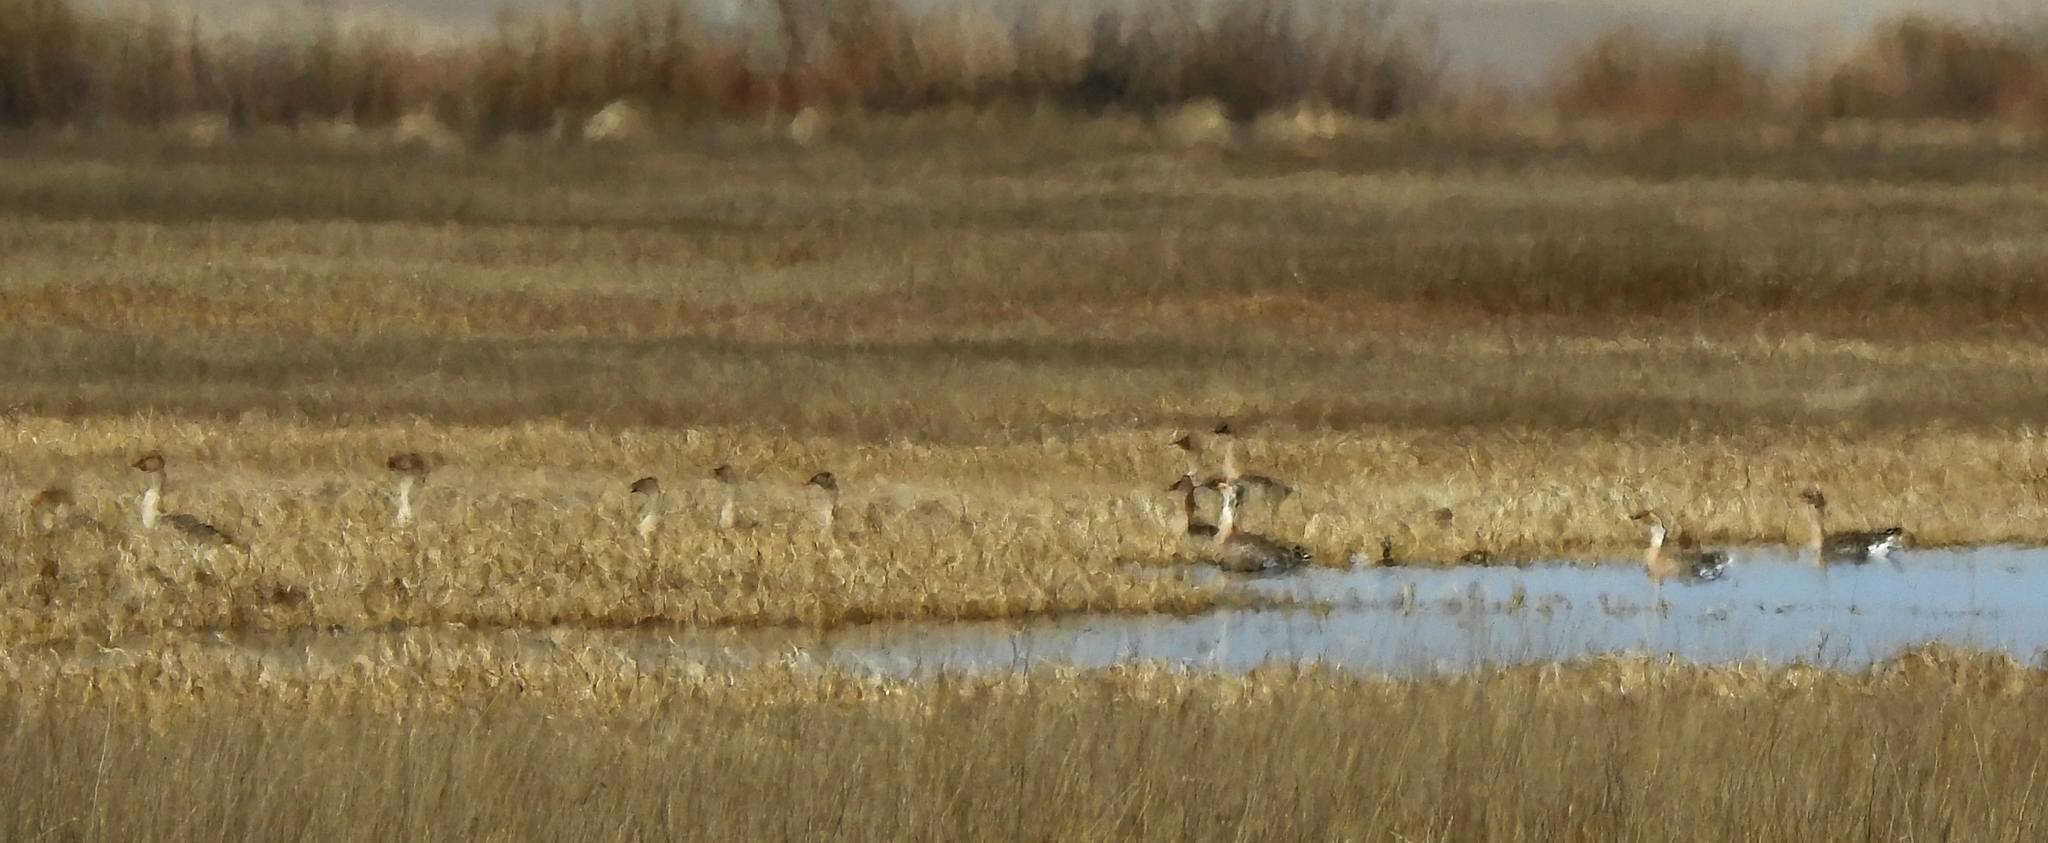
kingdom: Animalia
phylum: Chordata
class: Aves
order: Anseriformes
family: Anatidae
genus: Anser
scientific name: Anser fabalis
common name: Bean goose
